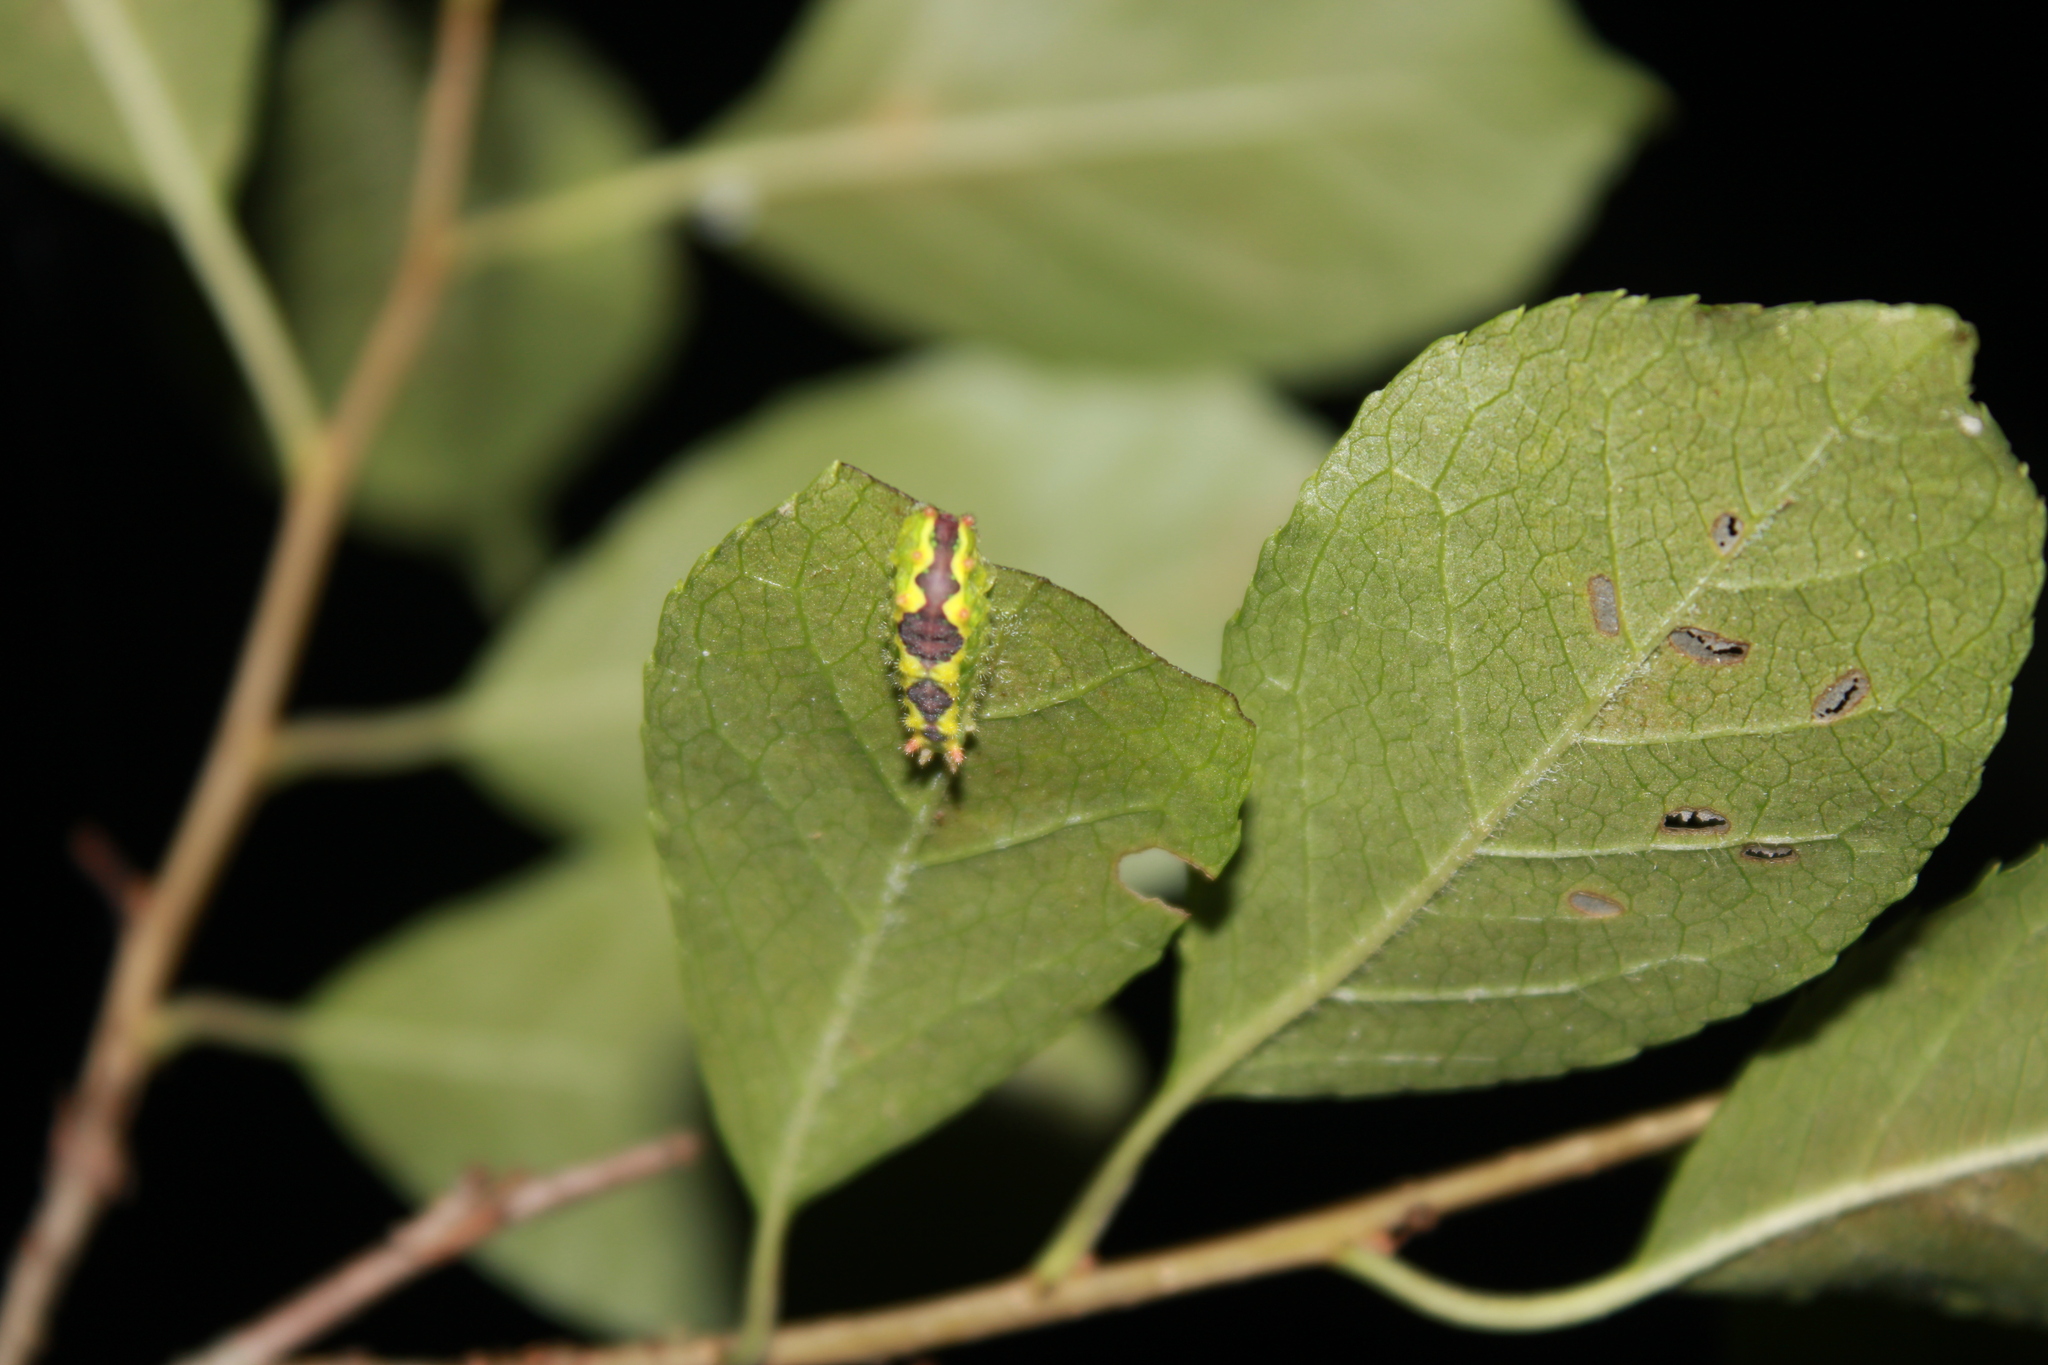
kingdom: Animalia
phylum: Arthropoda
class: Insecta
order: Lepidoptera
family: Limacodidae
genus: Adoneta
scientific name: Adoneta spinuloides
